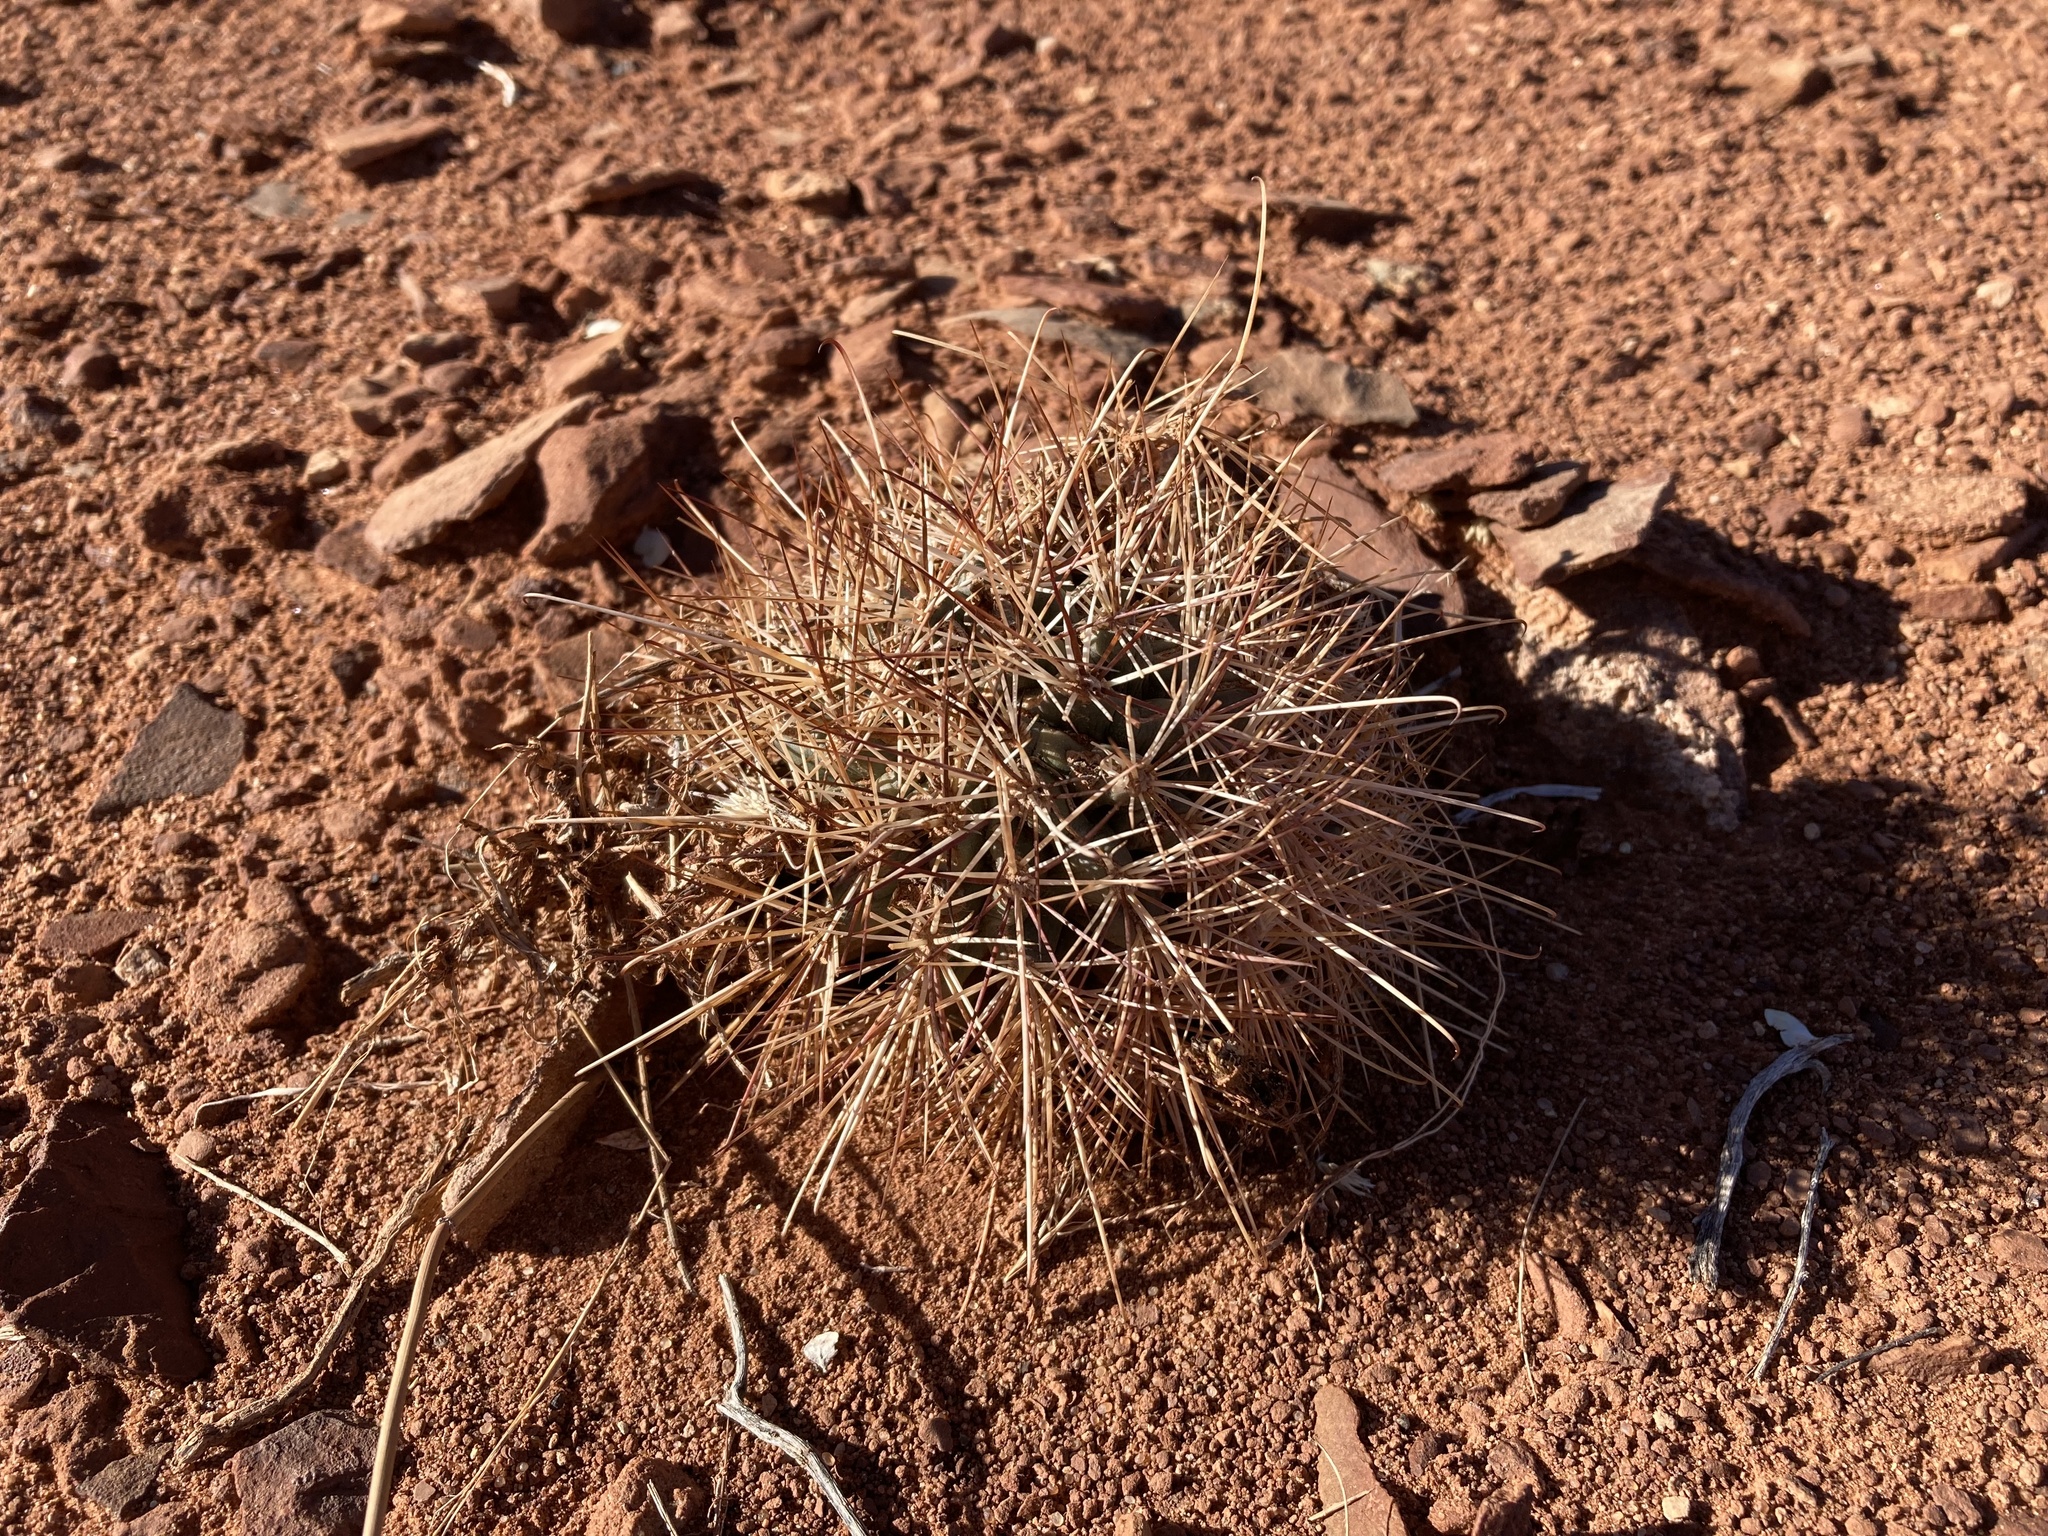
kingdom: Plantae
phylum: Tracheophyta
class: Magnoliopsida
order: Caryophyllales
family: Cactaceae
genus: Sclerocactus
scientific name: Sclerocactus parviflorus
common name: Small-flower fishhook cactus
